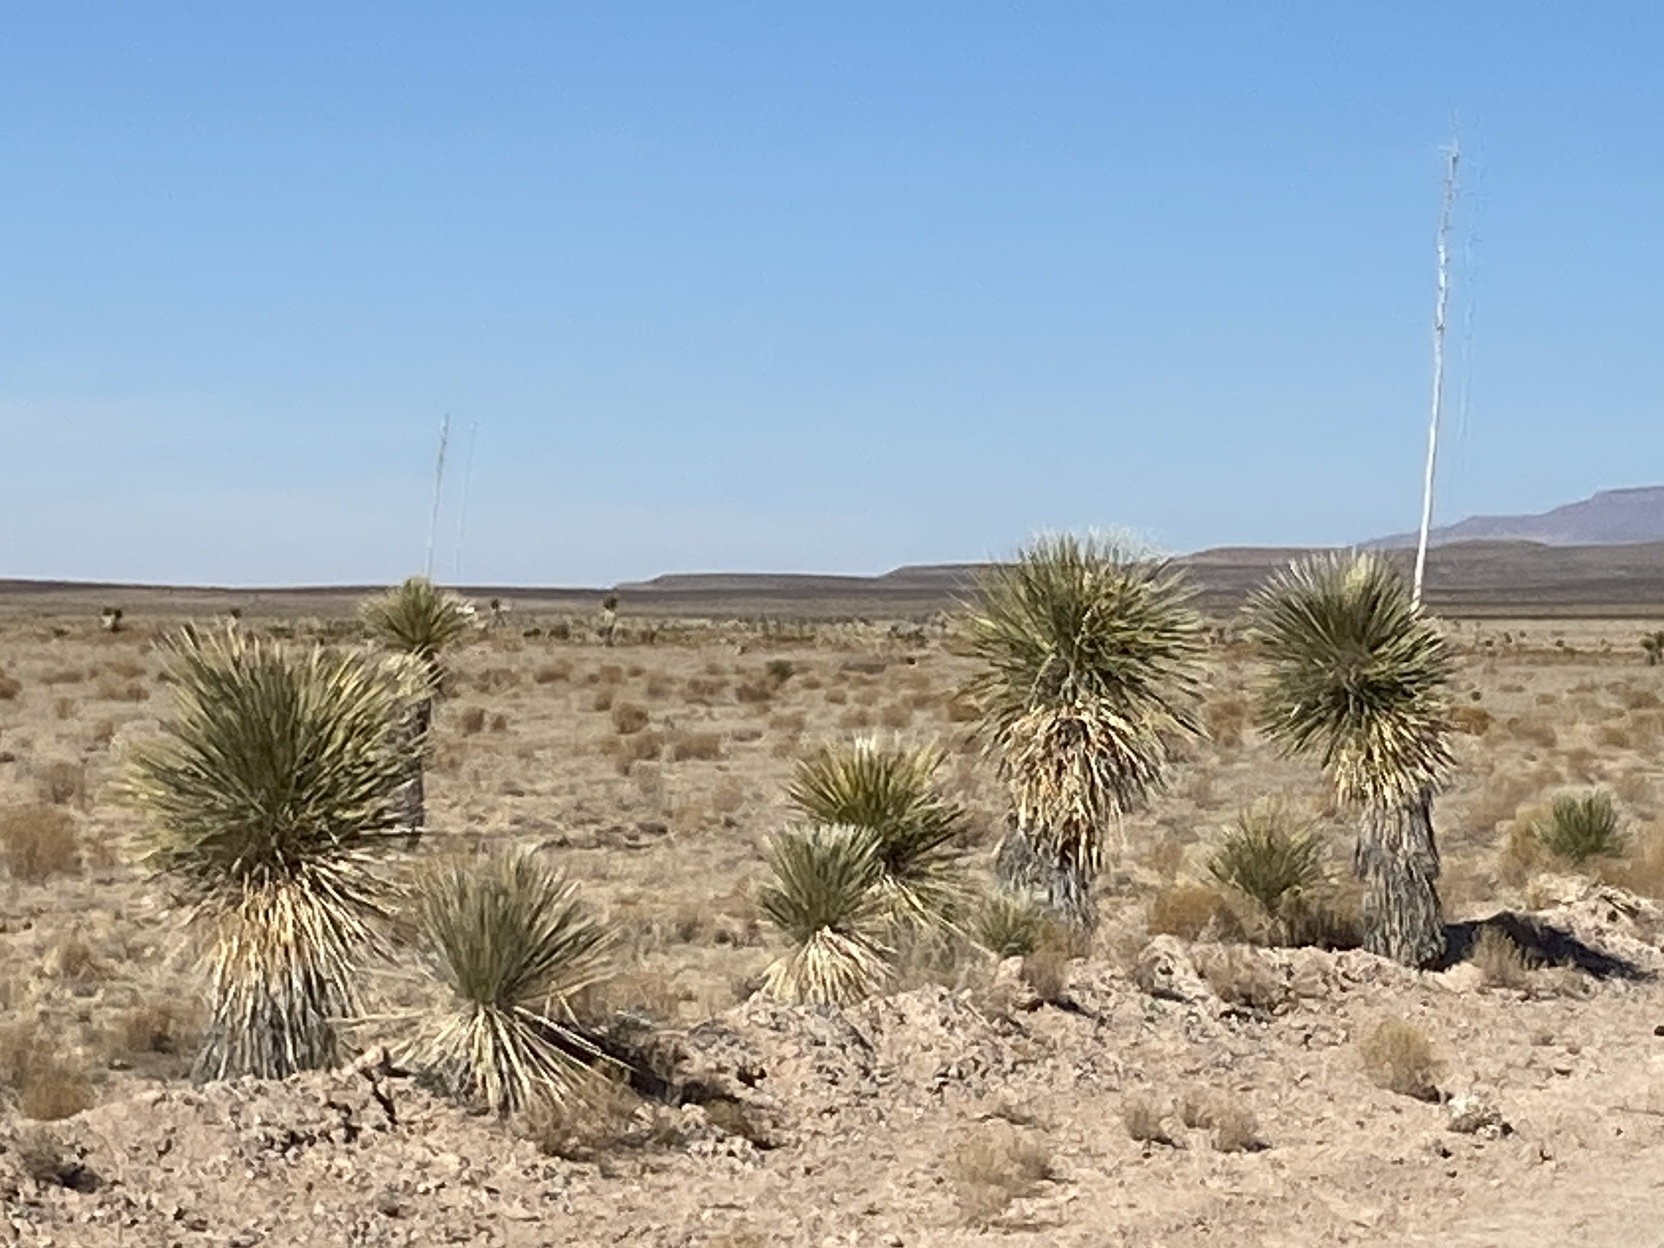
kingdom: Plantae
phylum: Tracheophyta
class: Liliopsida
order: Asparagales
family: Asparagaceae
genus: Yucca
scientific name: Yucca elata
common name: Palmella
